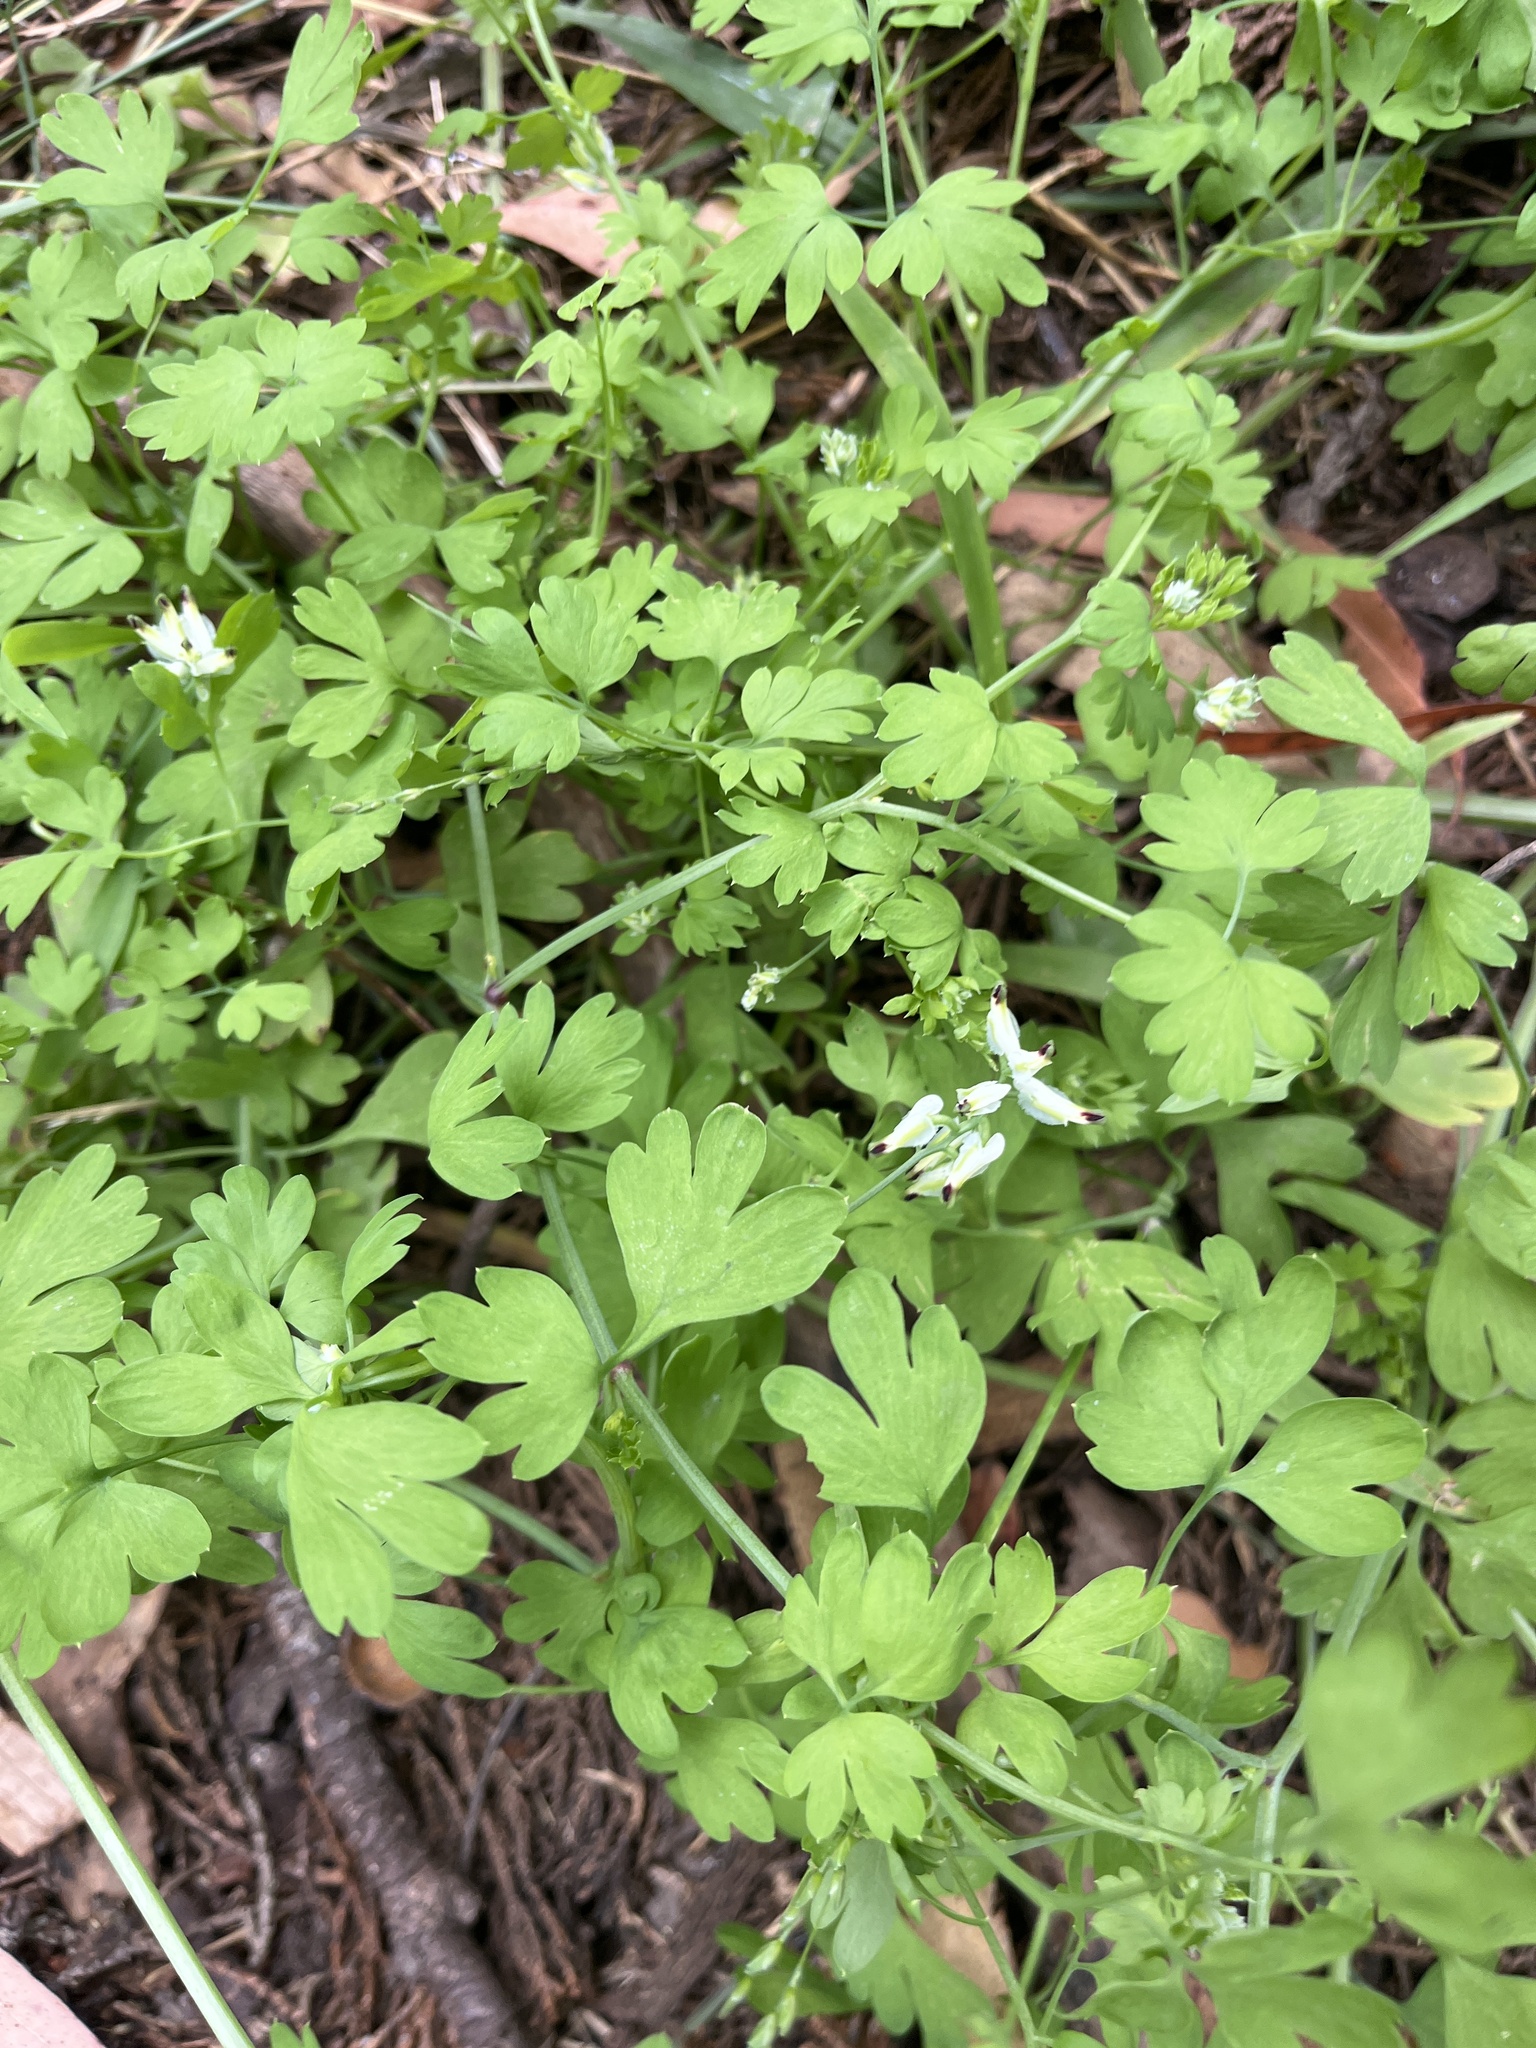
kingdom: Plantae
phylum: Tracheophyta
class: Magnoliopsida
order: Ranunculales
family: Papaveraceae
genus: Fumaria
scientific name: Fumaria capreolata
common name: White ramping-fumitory
